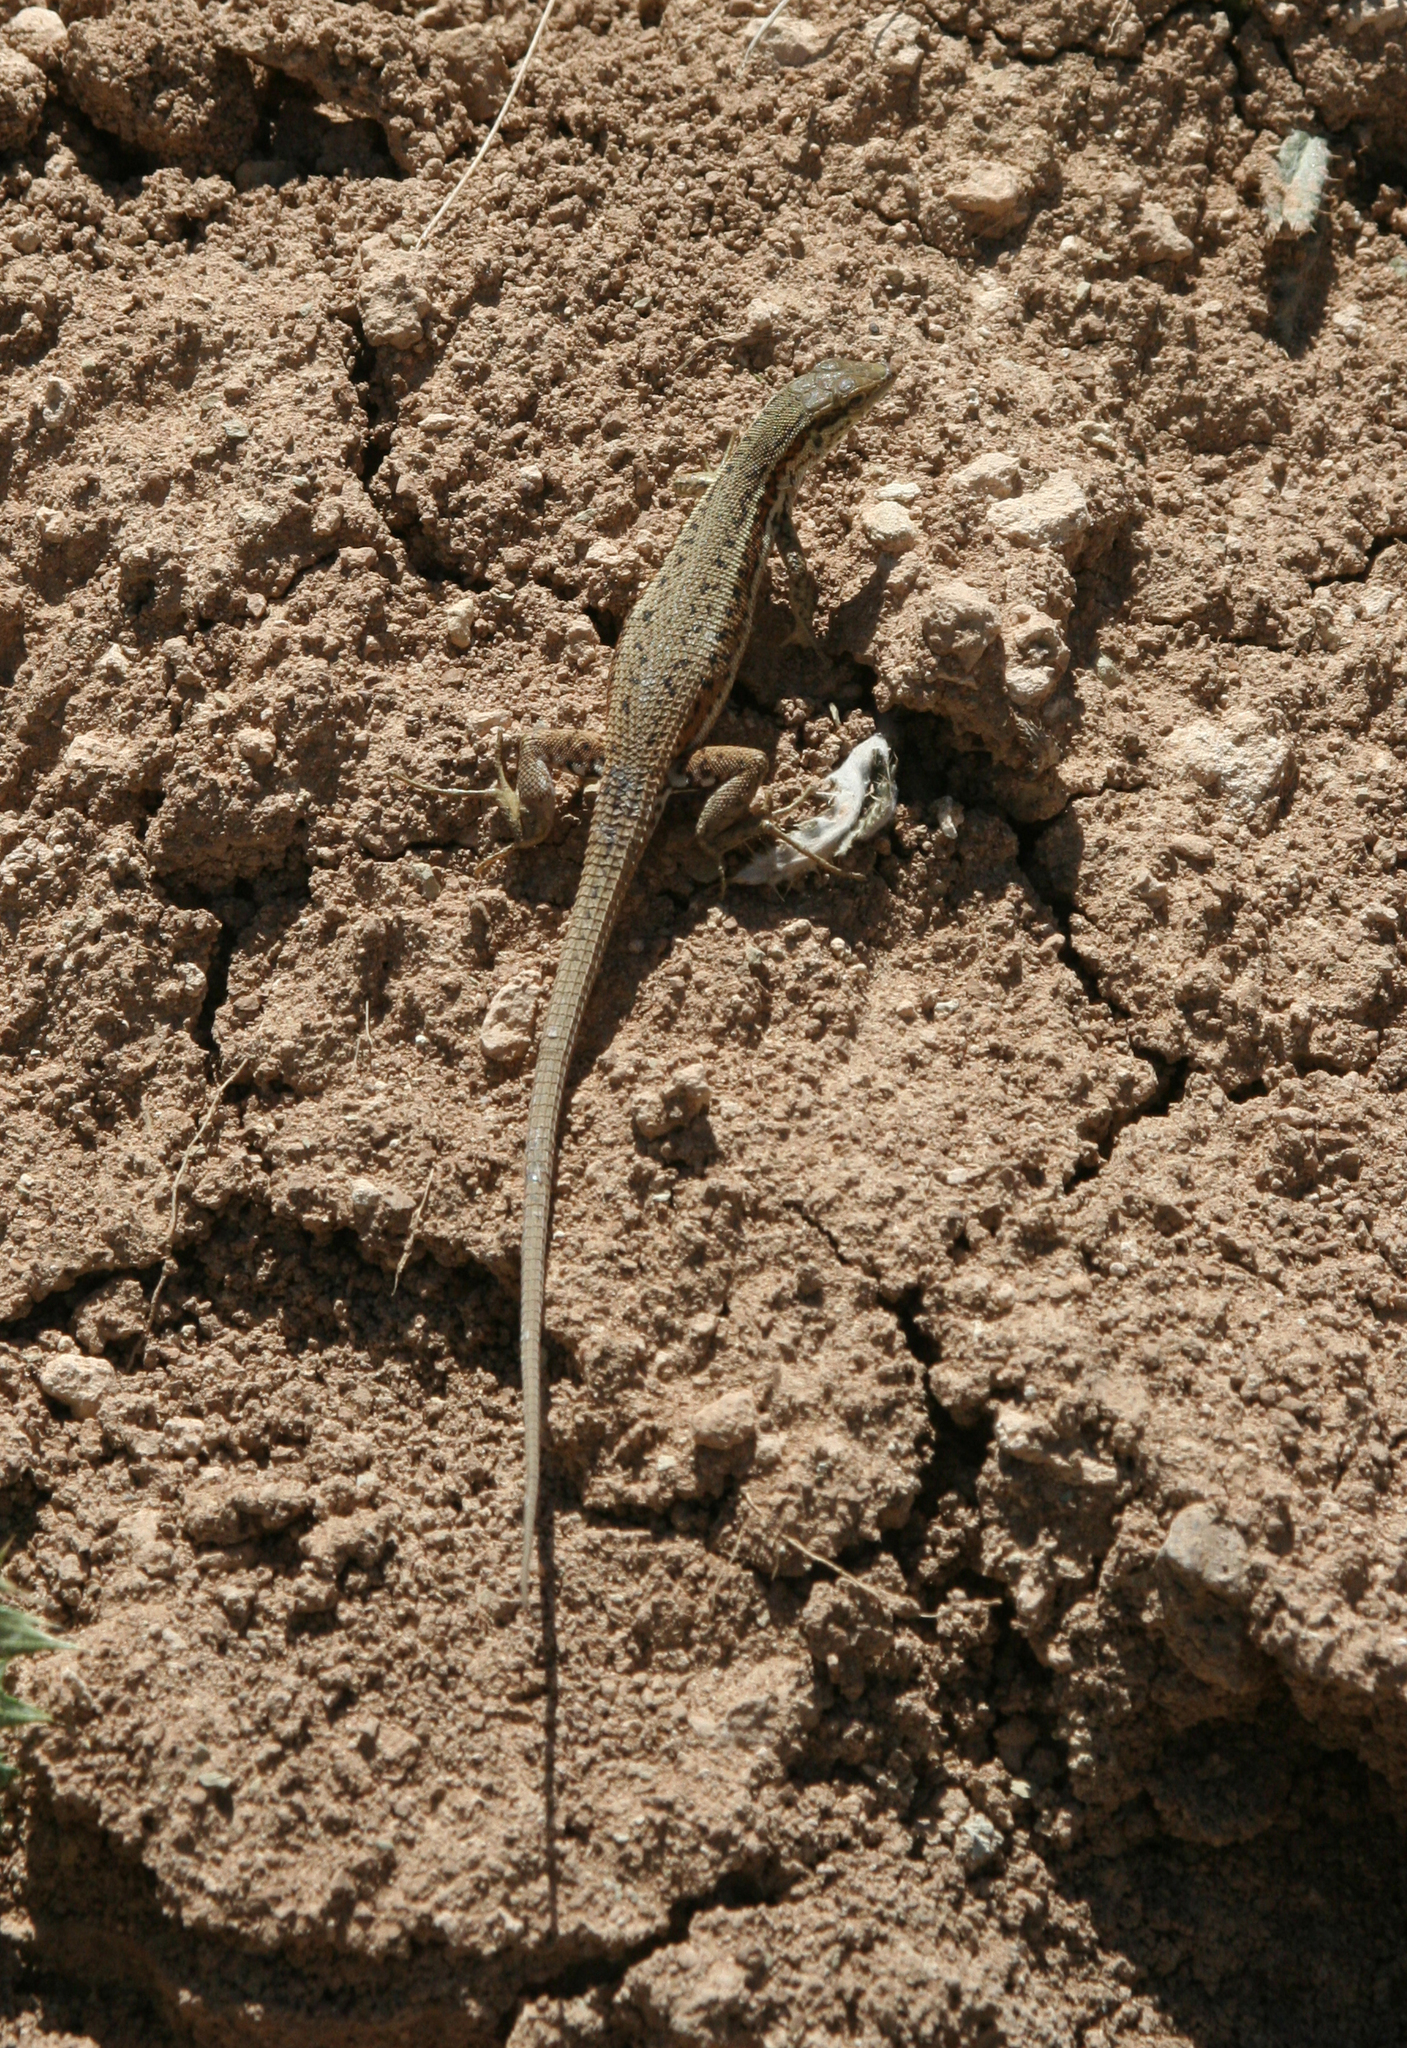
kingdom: Animalia
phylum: Chordata
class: Squamata
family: Lacertidae
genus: Ophisops
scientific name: Ophisops elegans
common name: Snake-eyed lizard
